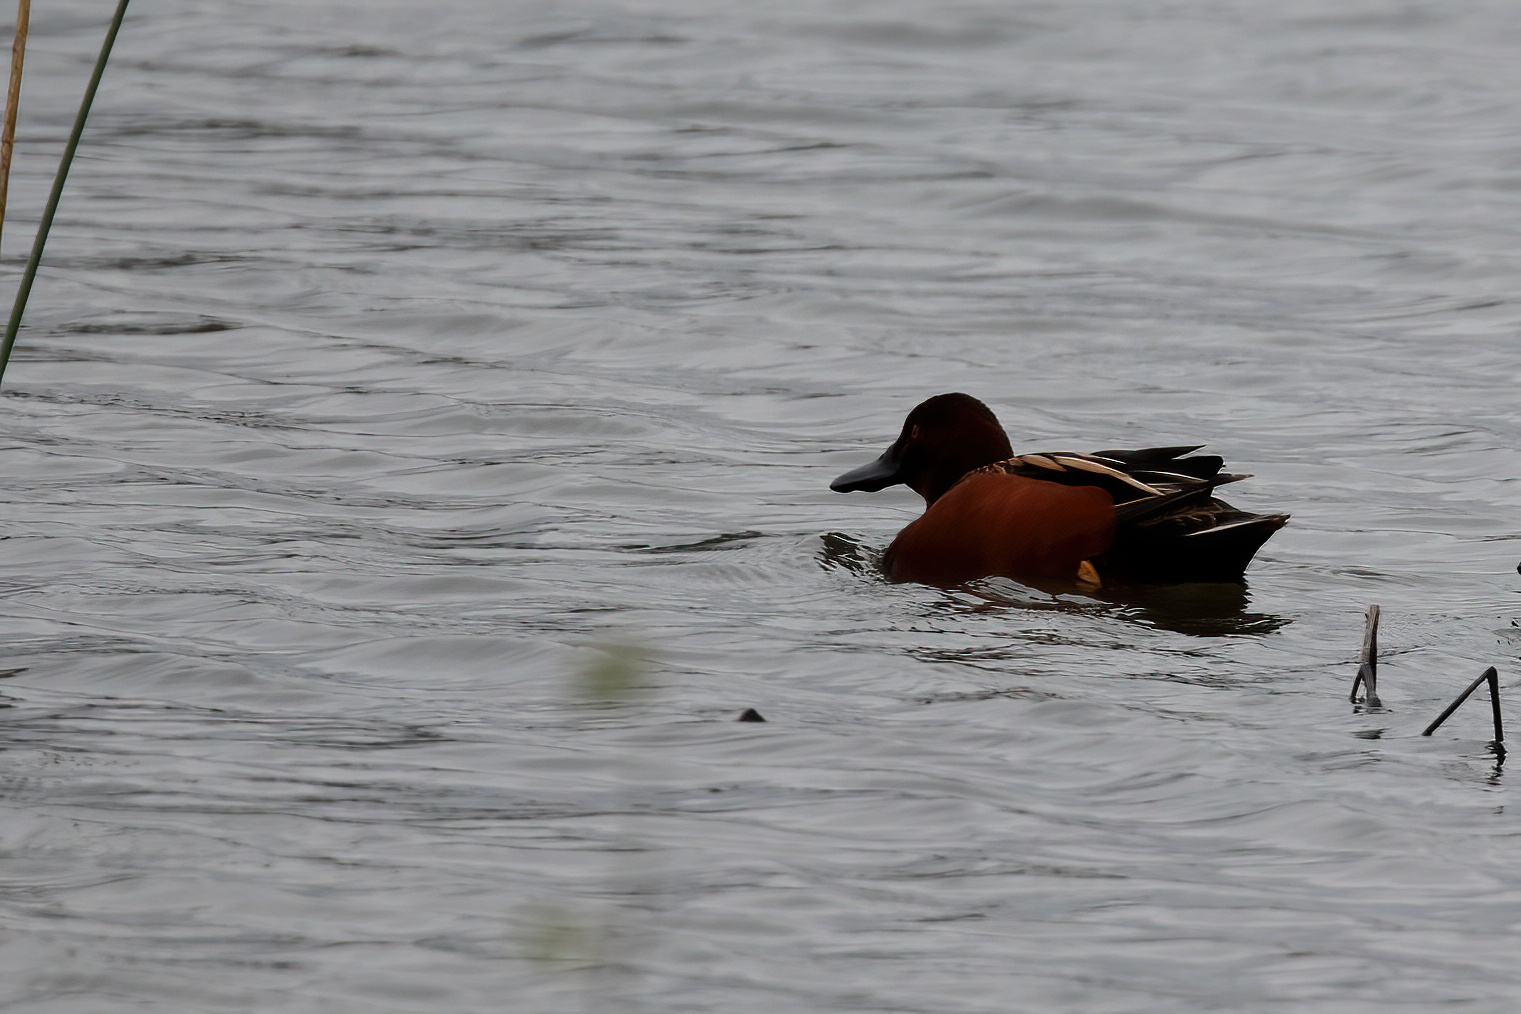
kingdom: Animalia
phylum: Chordata
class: Aves
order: Anseriformes
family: Anatidae
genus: Spatula
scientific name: Spatula cyanoptera
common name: Cinnamon teal
